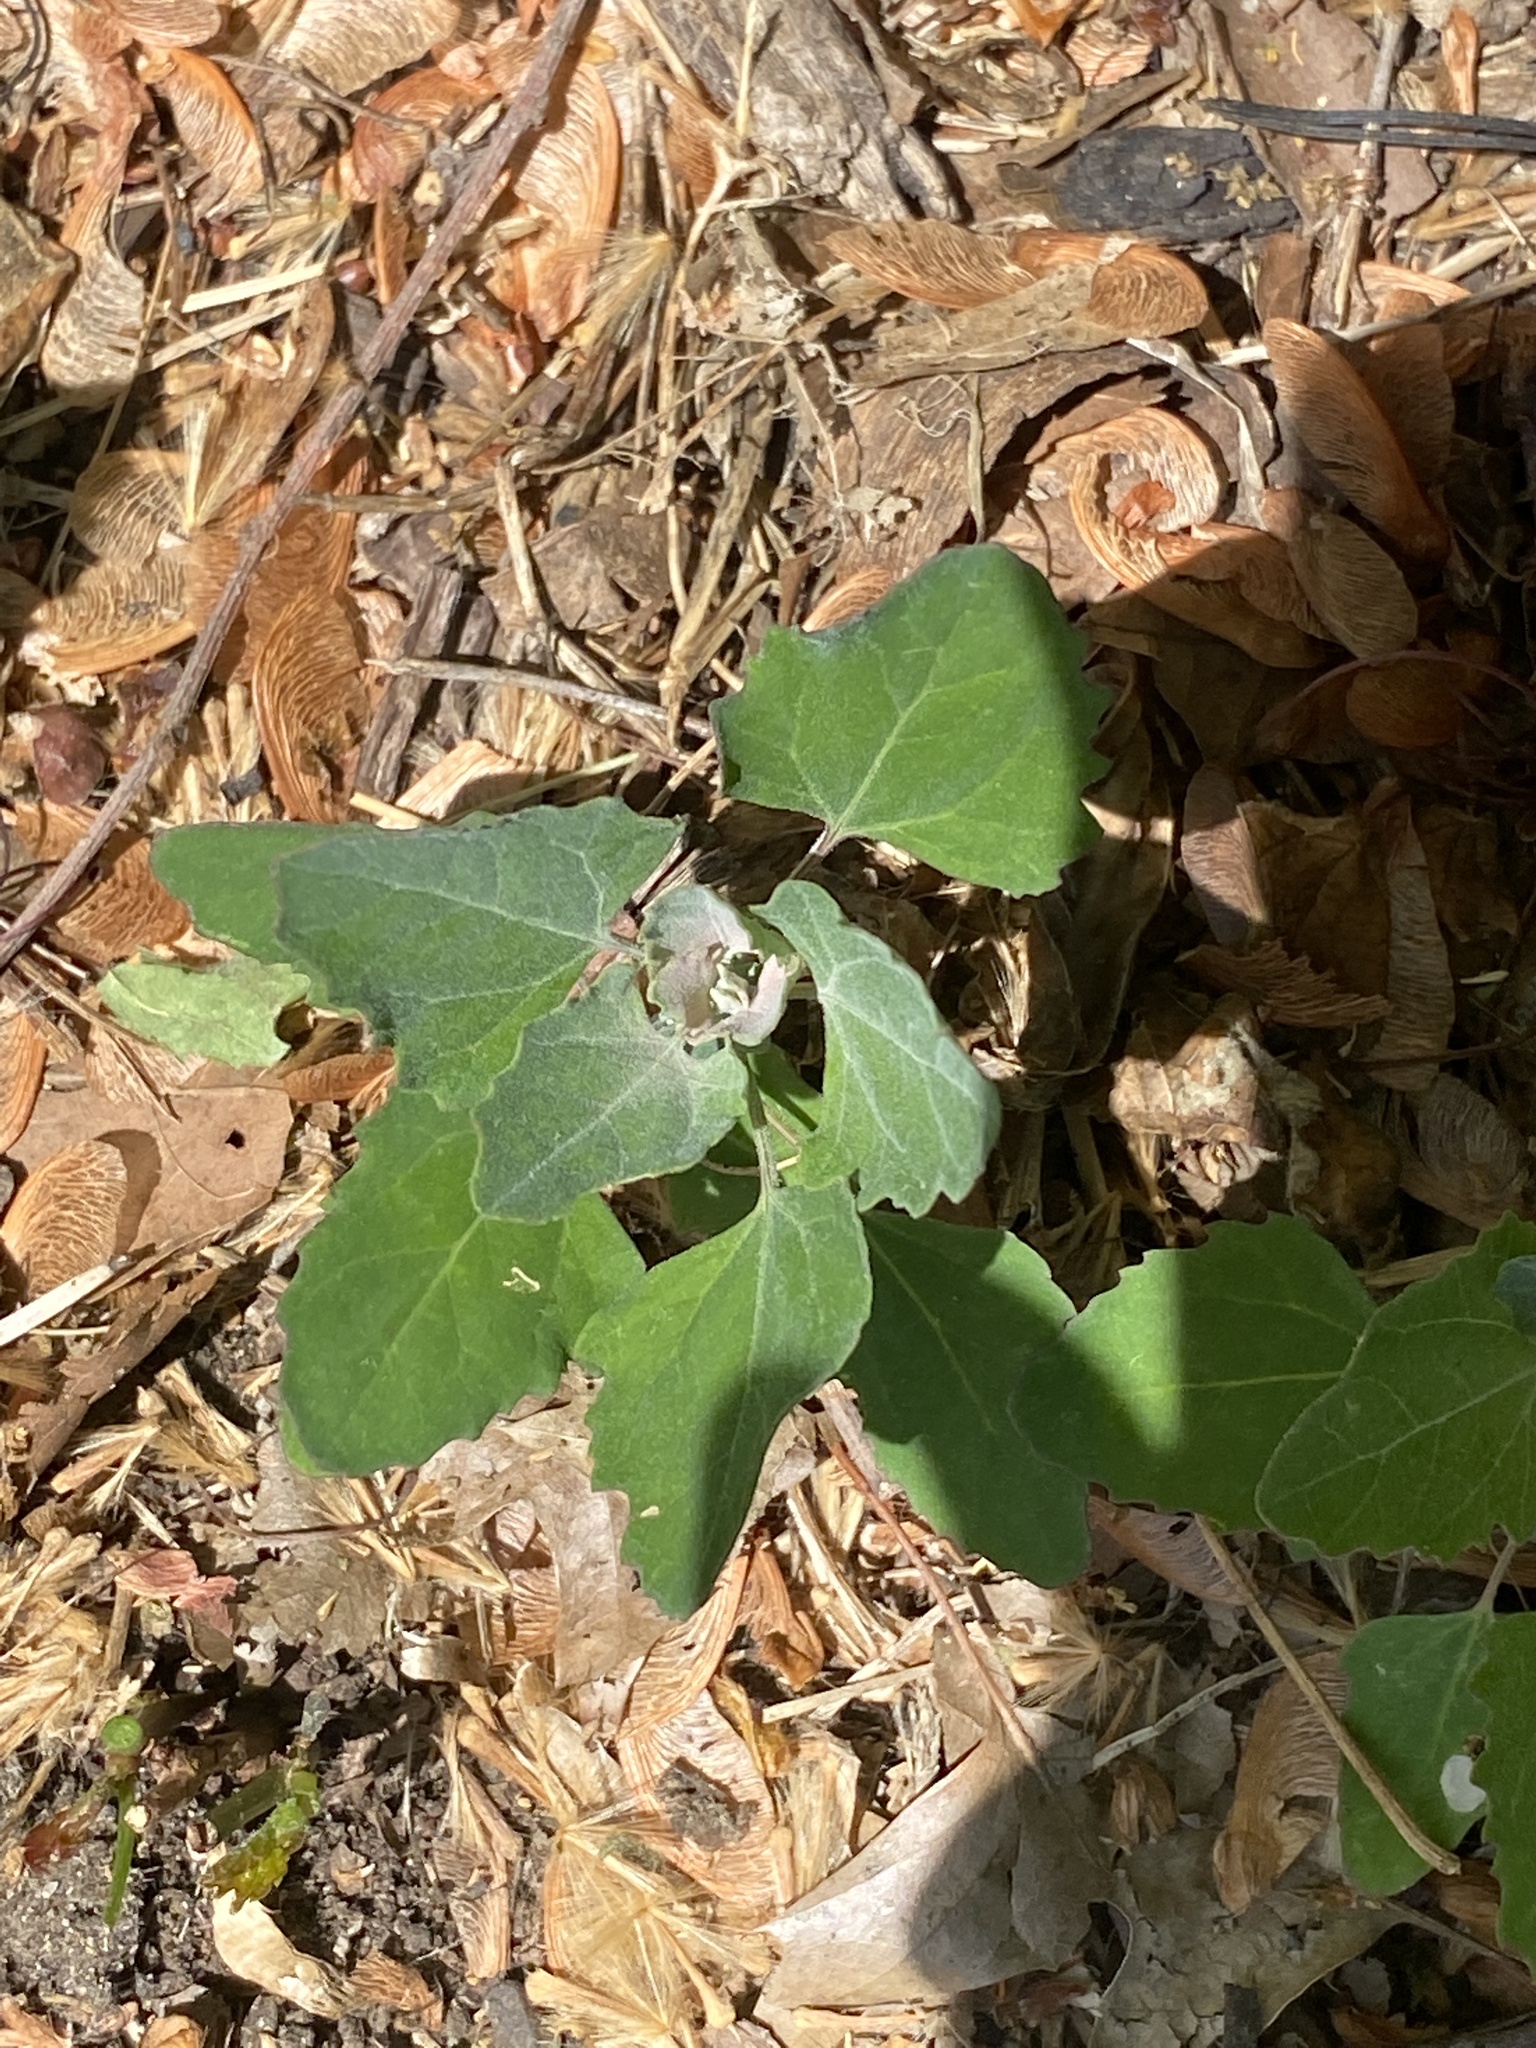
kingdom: Plantae
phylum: Tracheophyta
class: Magnoliopsida
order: Caryophyllales
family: Amaranthaceae
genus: Chenopodium
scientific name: Chenopodium album
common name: Fat-hen
